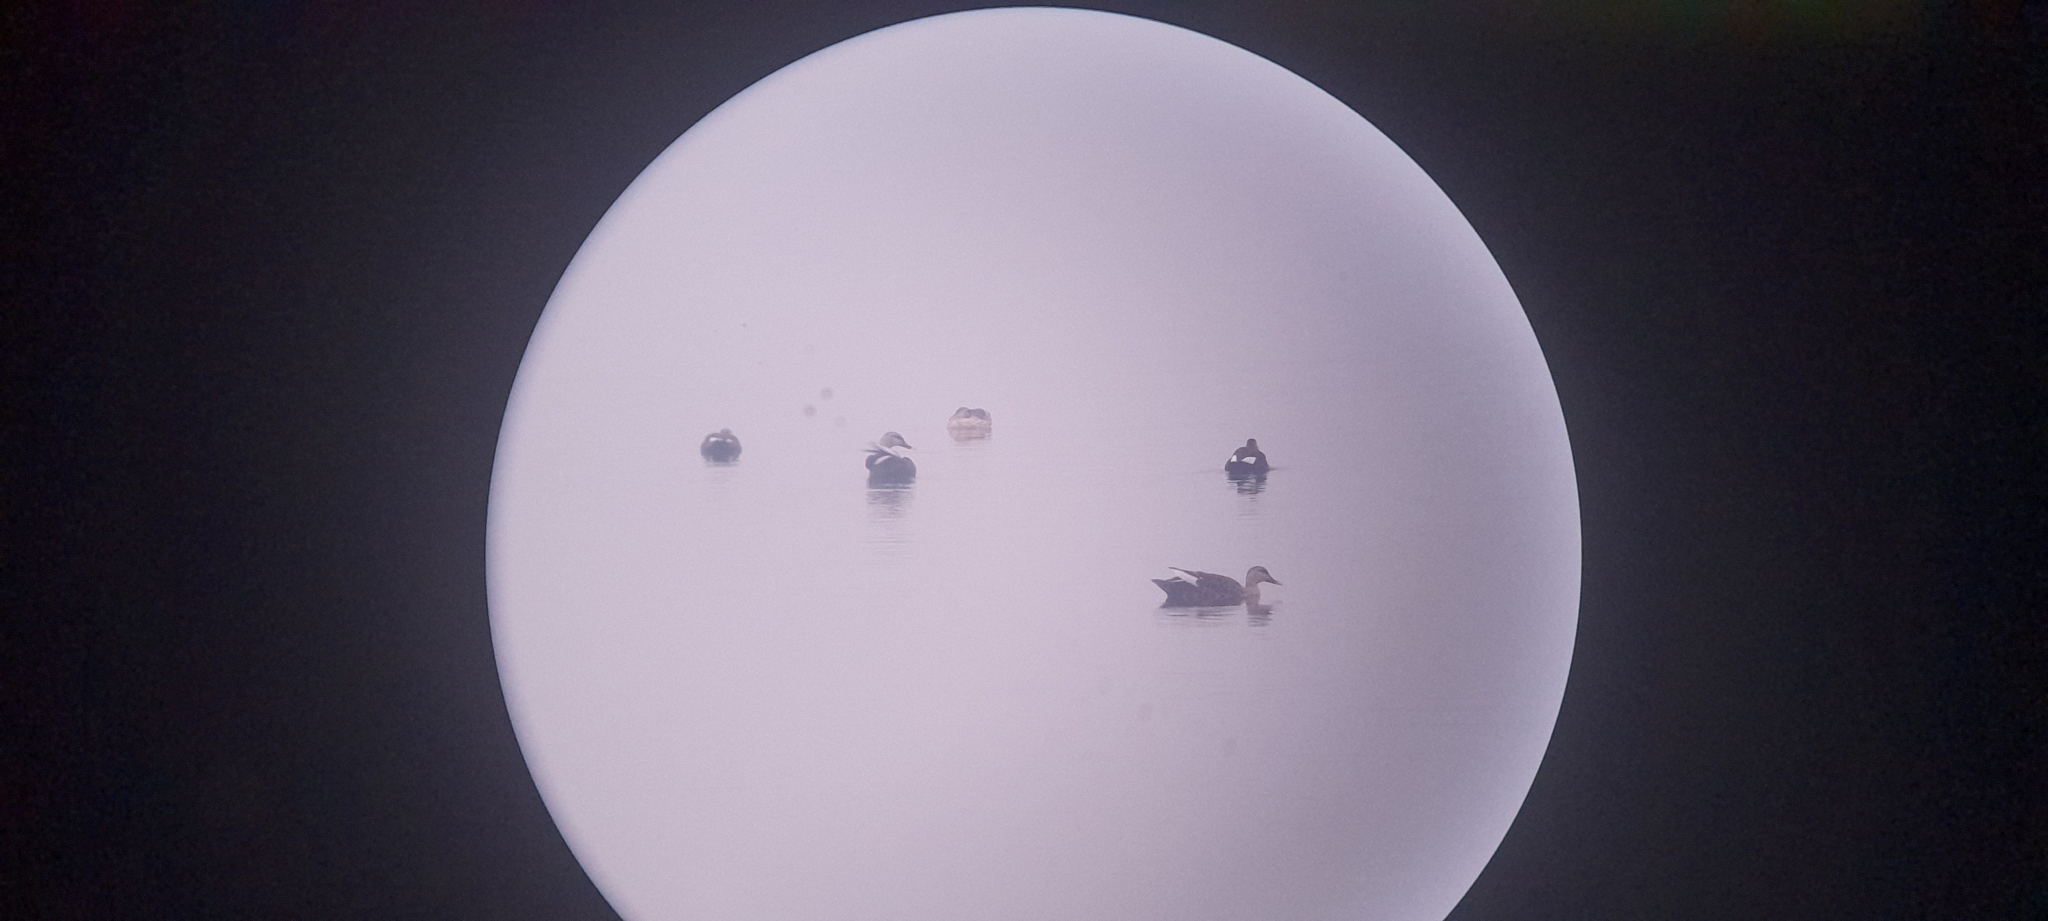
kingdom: Animalia
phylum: Chordata
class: Aves
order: Anseriformes
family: Anatidae
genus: Anas
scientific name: Anas poecilorhyncha
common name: Indian spot-billed duck
